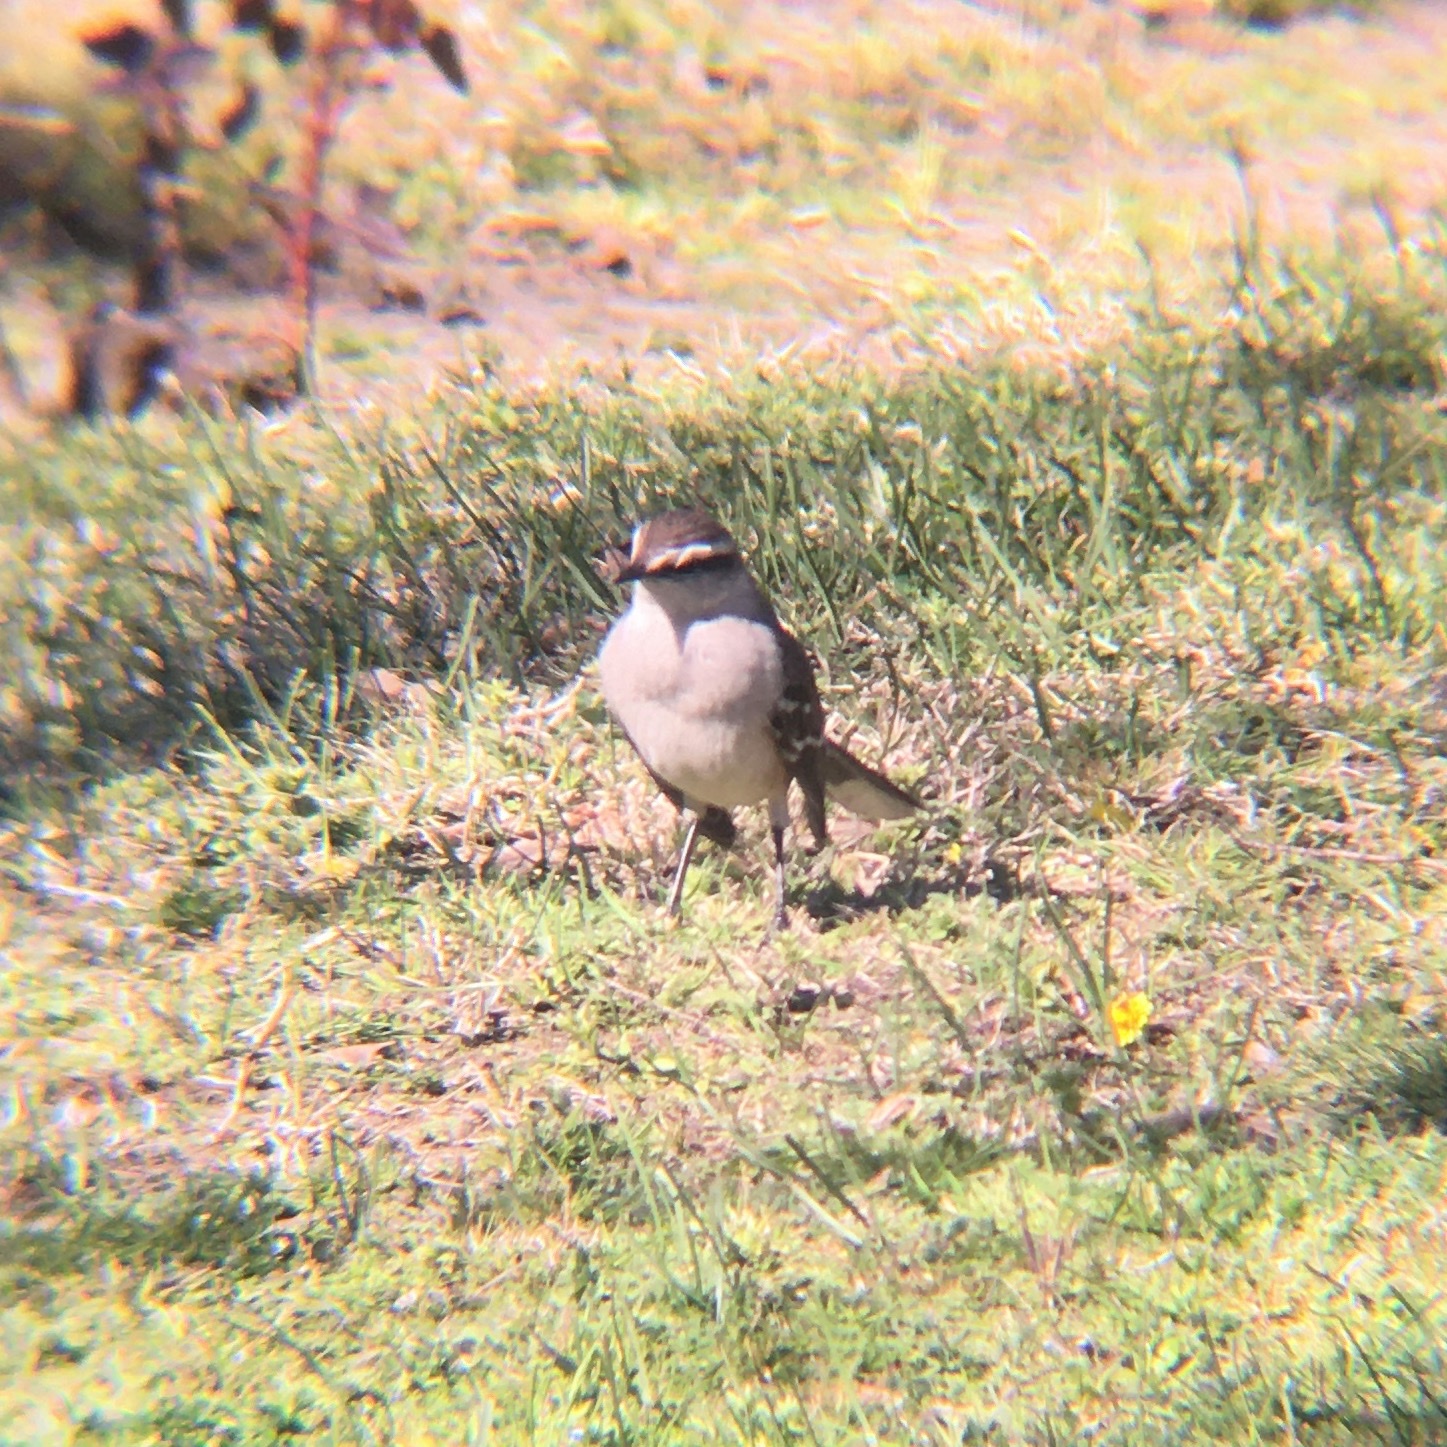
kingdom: Animalia
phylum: Chordata
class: Aves
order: Passeriformes
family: Mimidae
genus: Mimus
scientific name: Mimus saturninus
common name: Chalk-browed mockingbird
